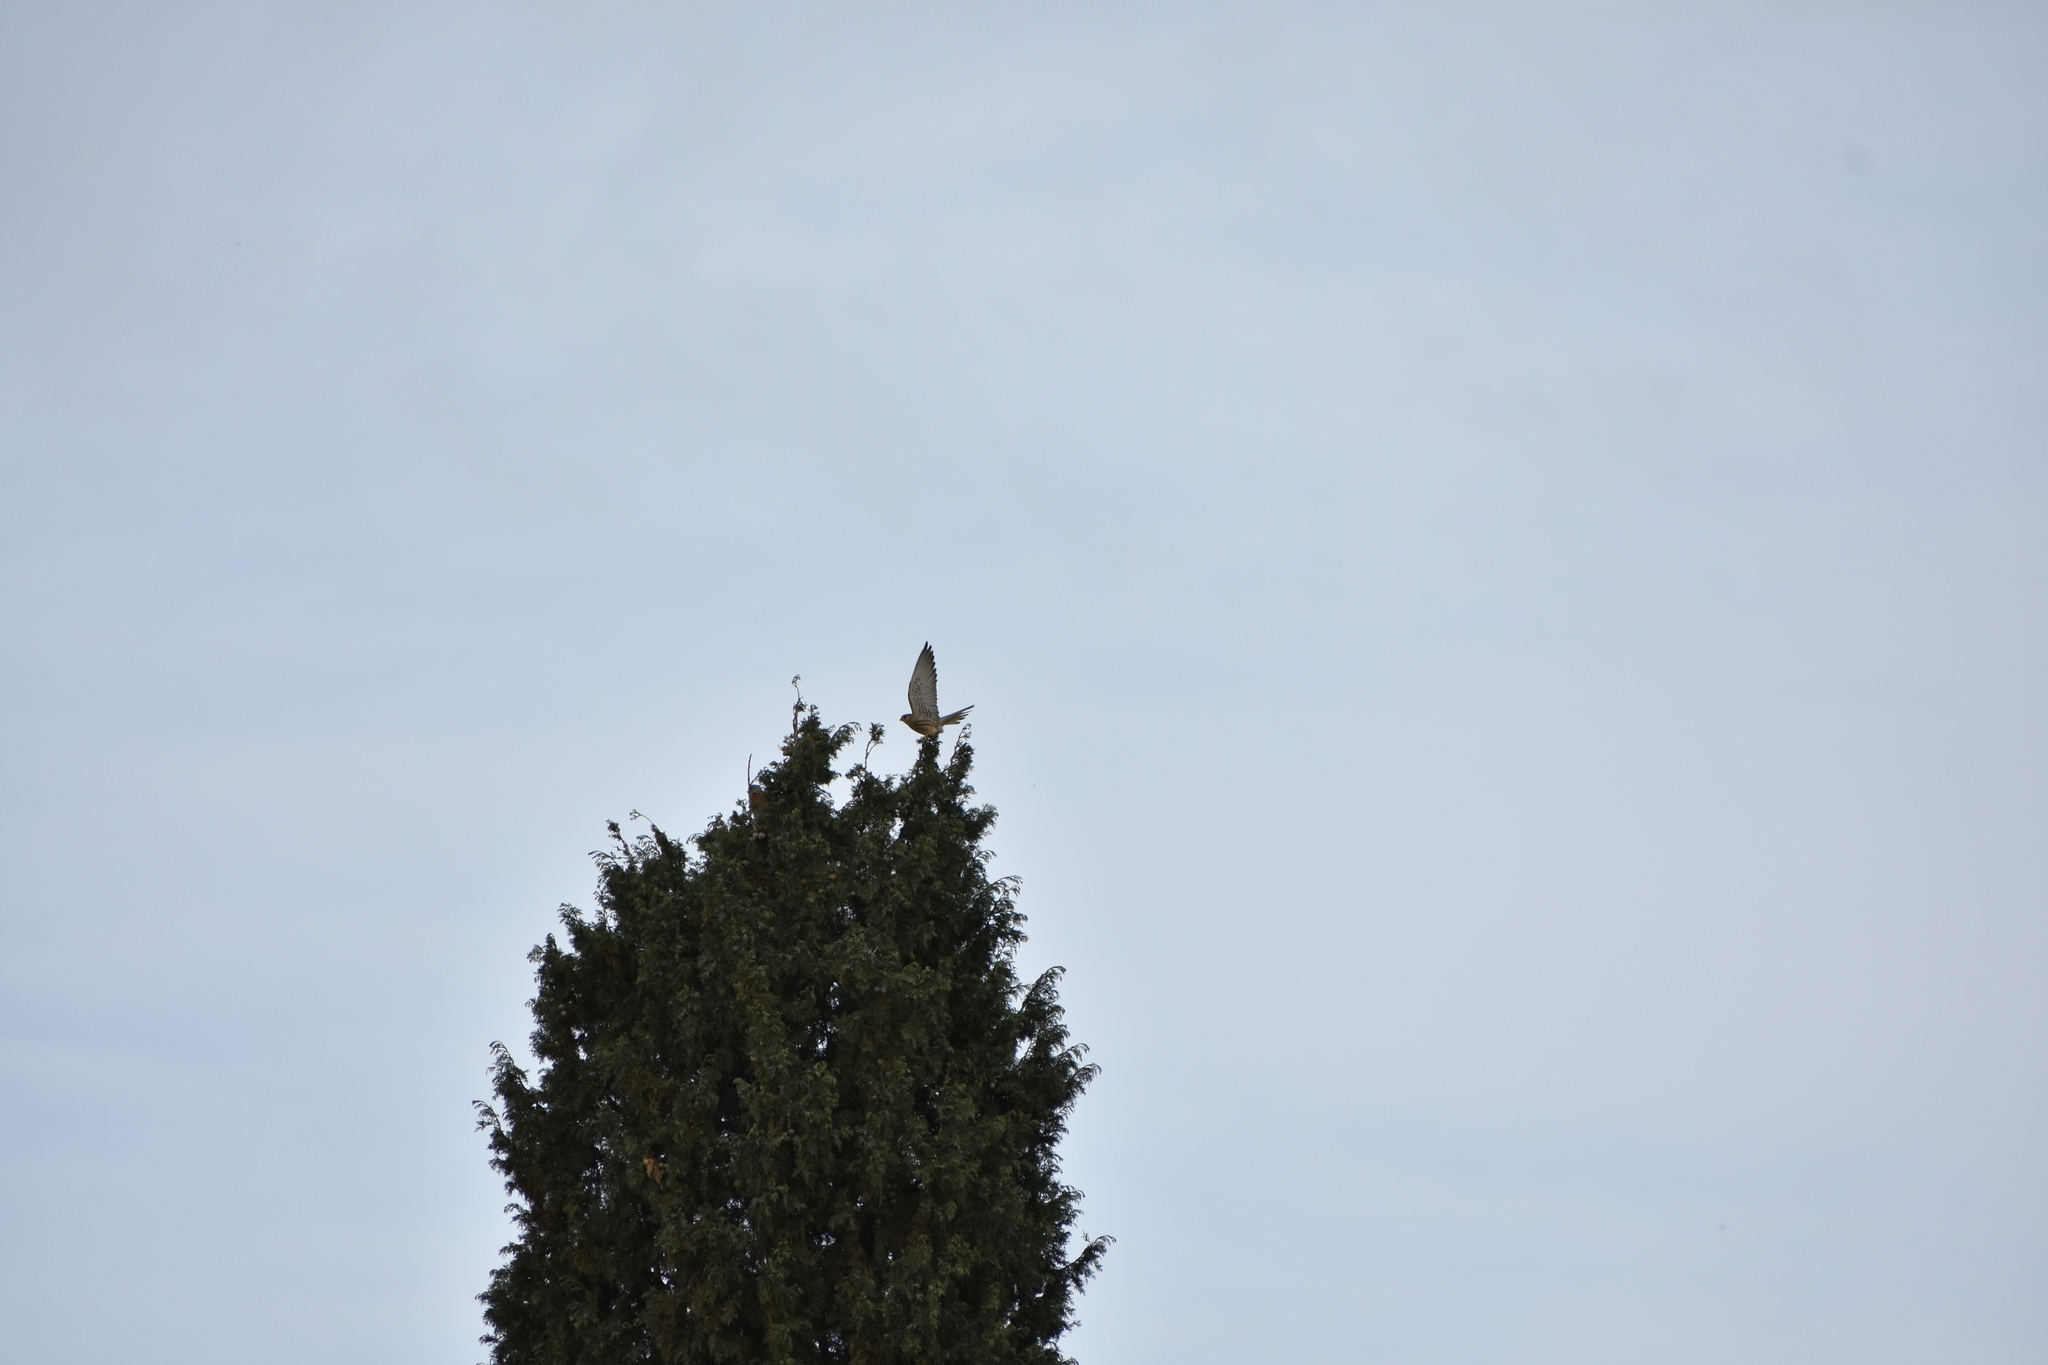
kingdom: Animalia
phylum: Chordata
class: Aves
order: Falconiformes
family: Falconidae
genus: Falco
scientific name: Falco naumanni
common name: Lesser kestrel
